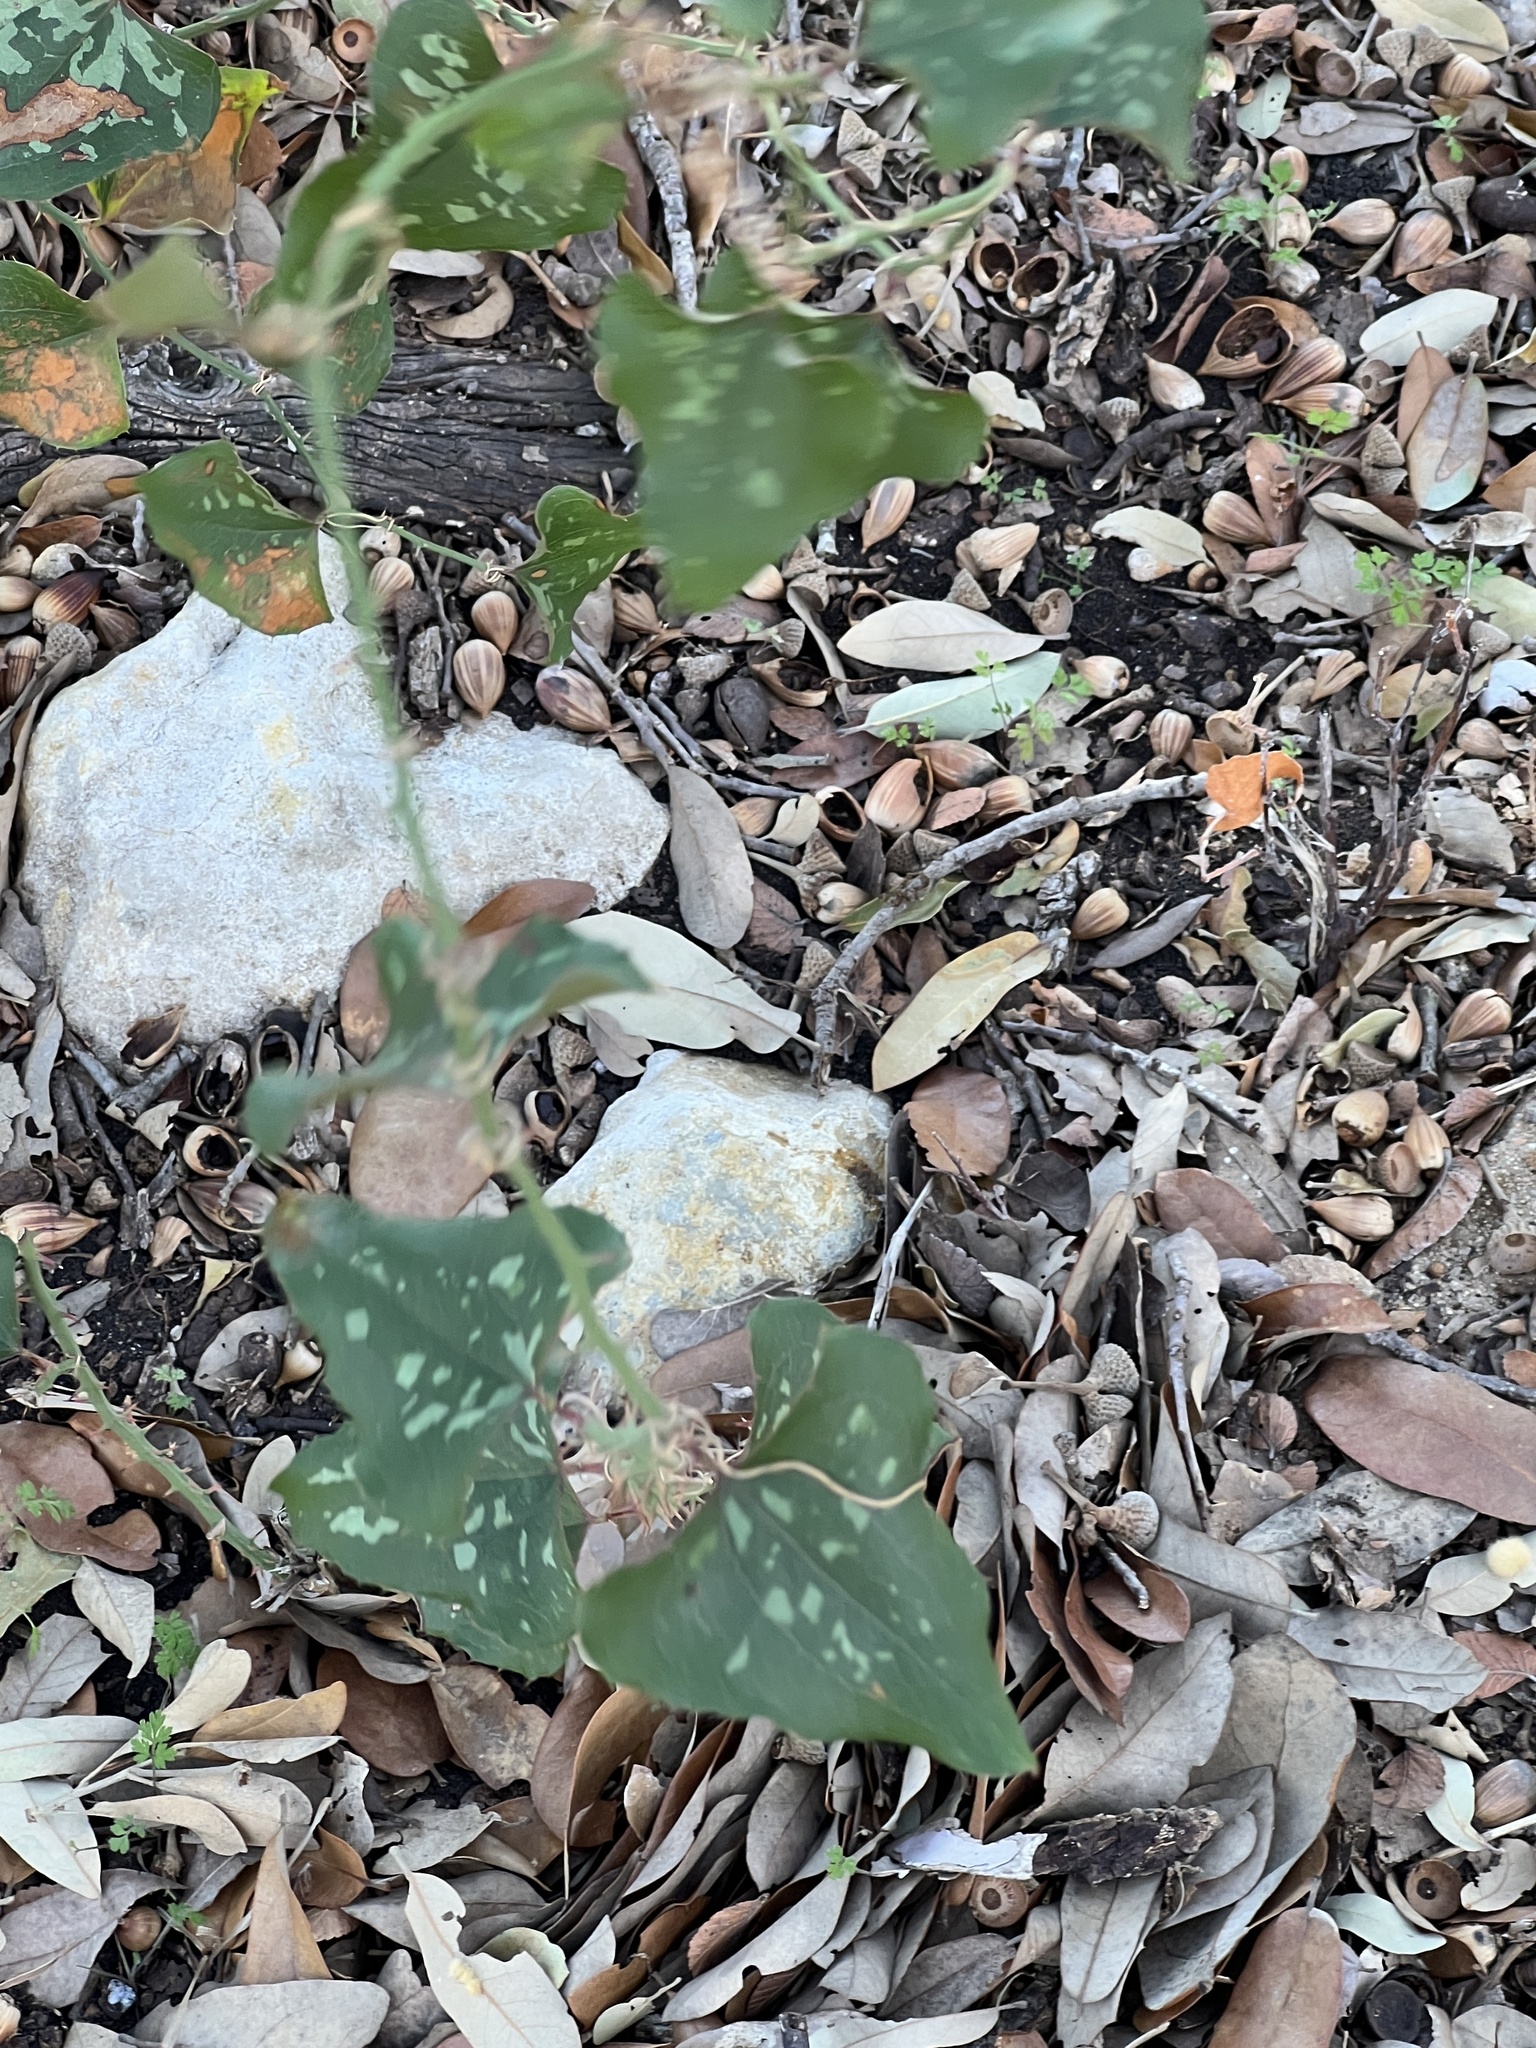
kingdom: Plantae
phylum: Tracheophyta
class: Liliopsida
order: Liliales
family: Smilacaceae
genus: Smilax
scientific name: Smilax bona-nox
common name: Catbrier
